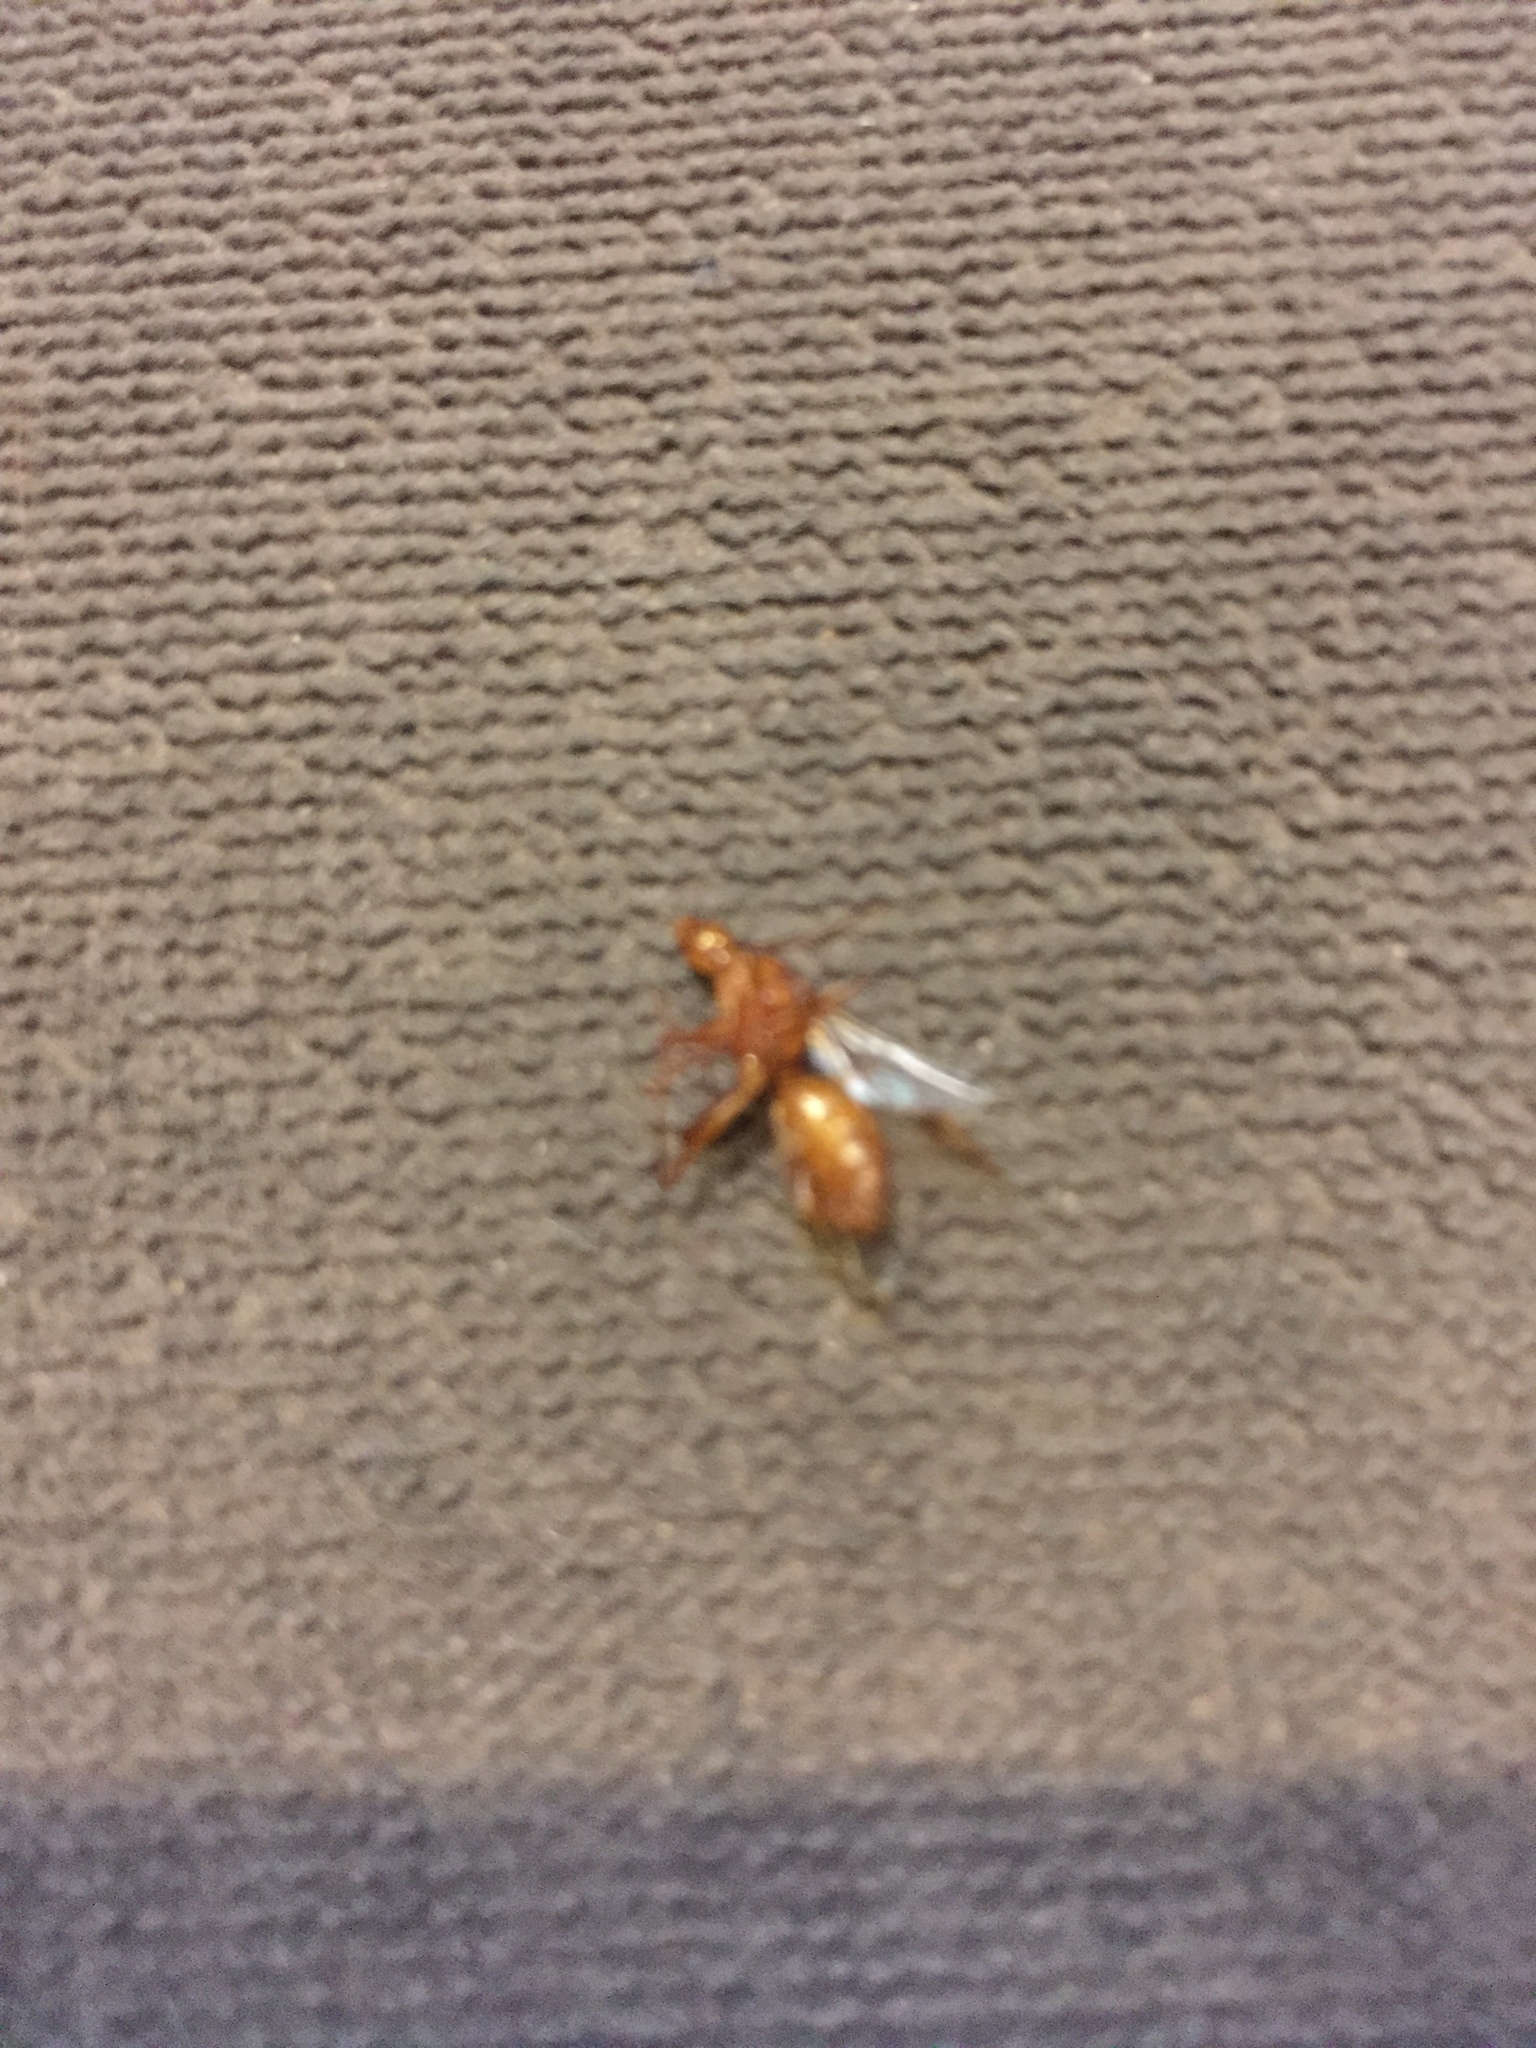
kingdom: Animalia
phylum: Arthropoda
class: Insecta
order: Hymenoptera
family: Formicidae
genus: Camponotus
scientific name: Camponotus castaneus
